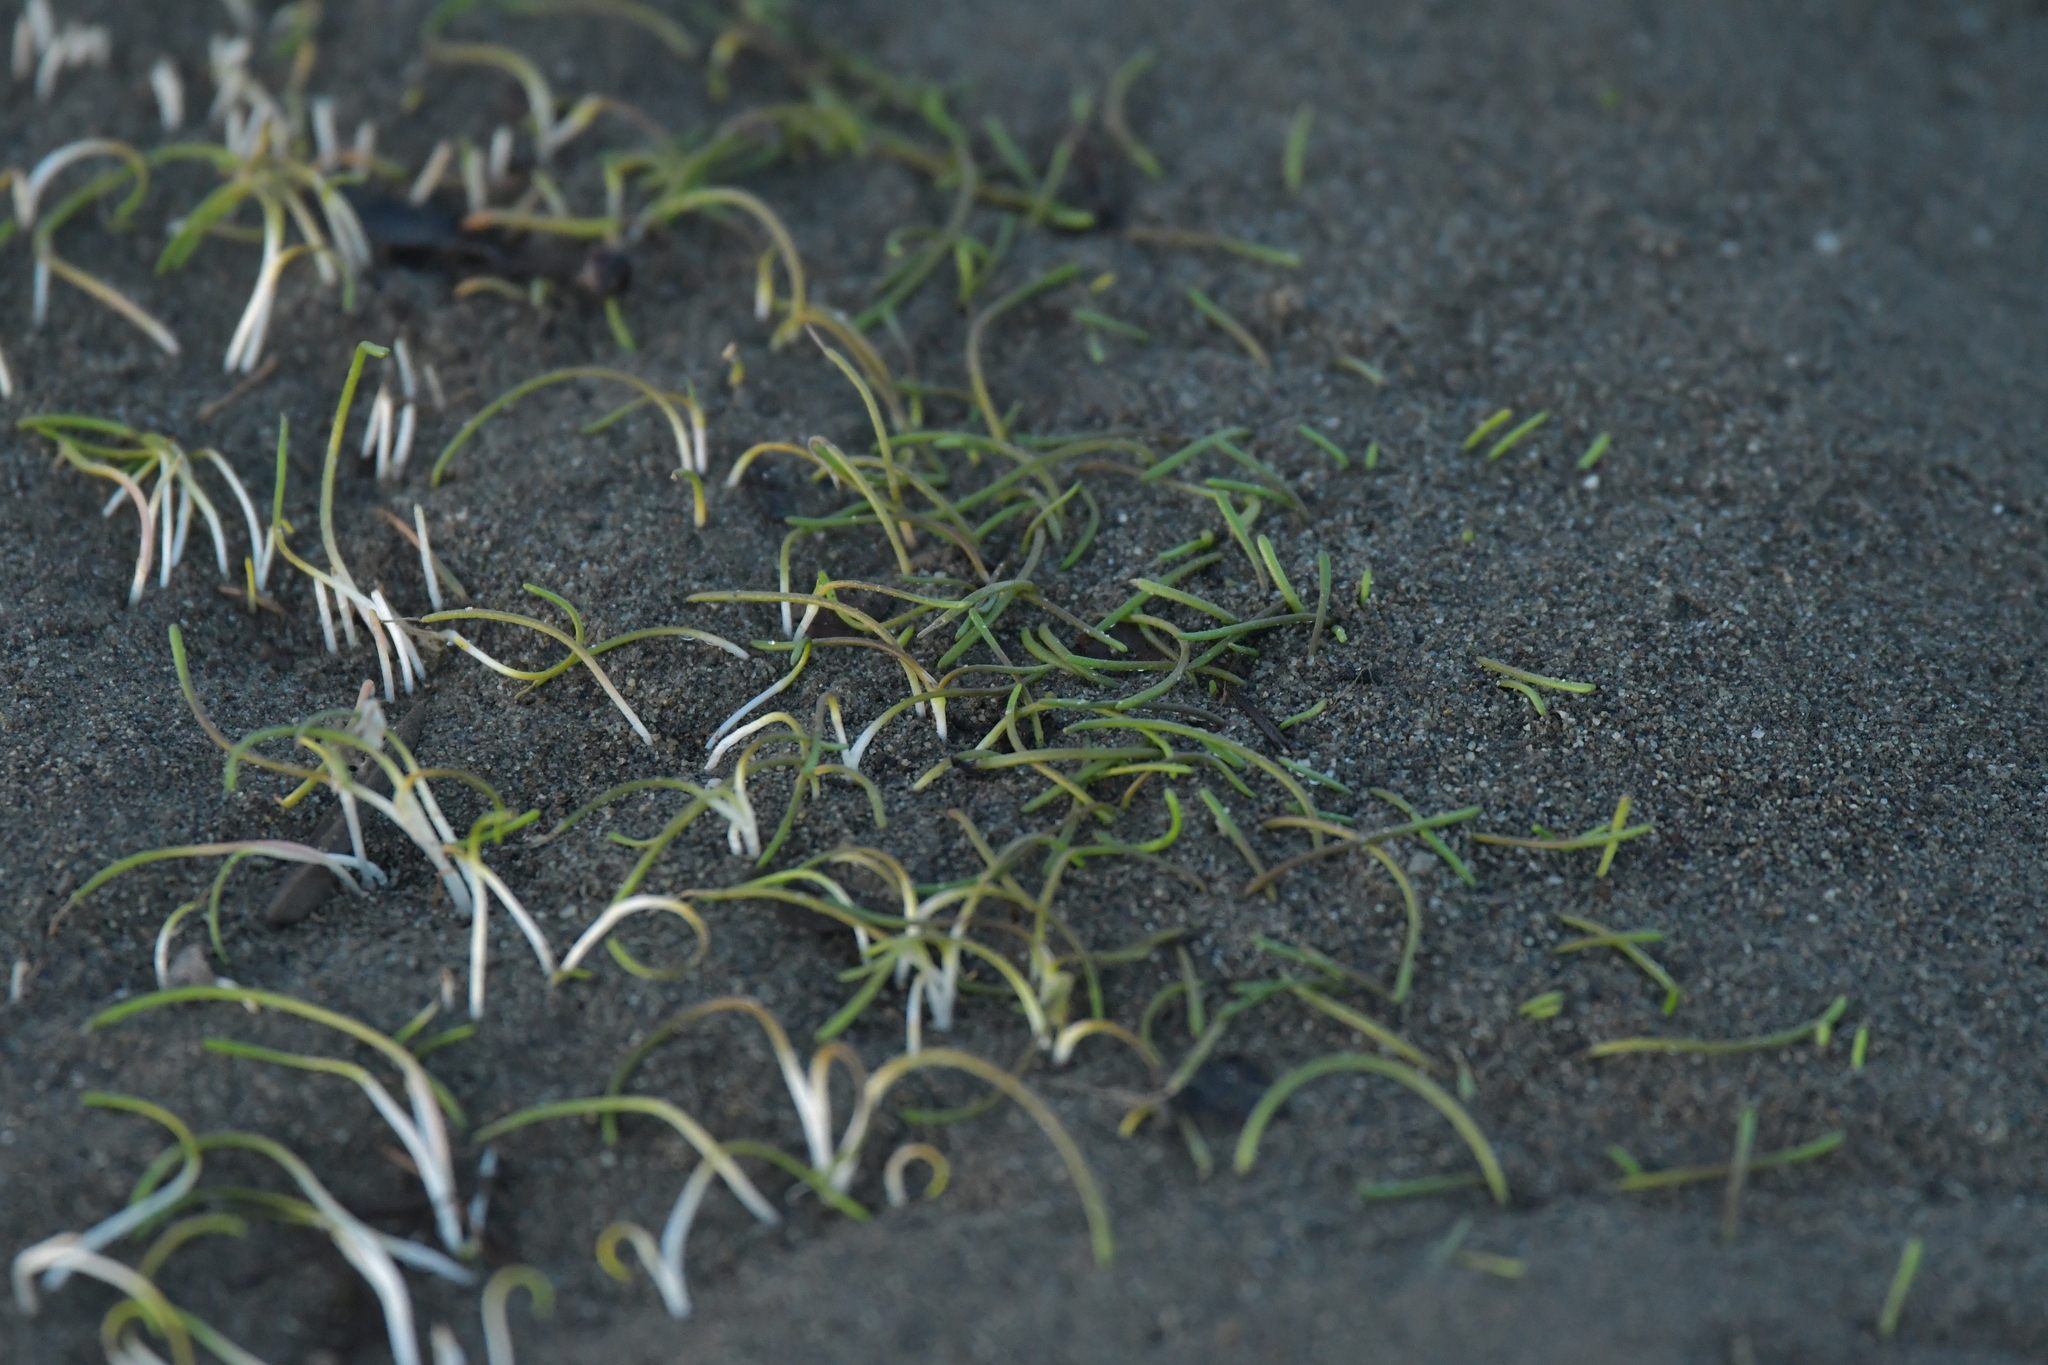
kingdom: Plantae
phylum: Tracheophyta
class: Liliopsida
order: Alismatales
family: Juncaginaceae
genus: Triglochin
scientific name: Triglochin striata
